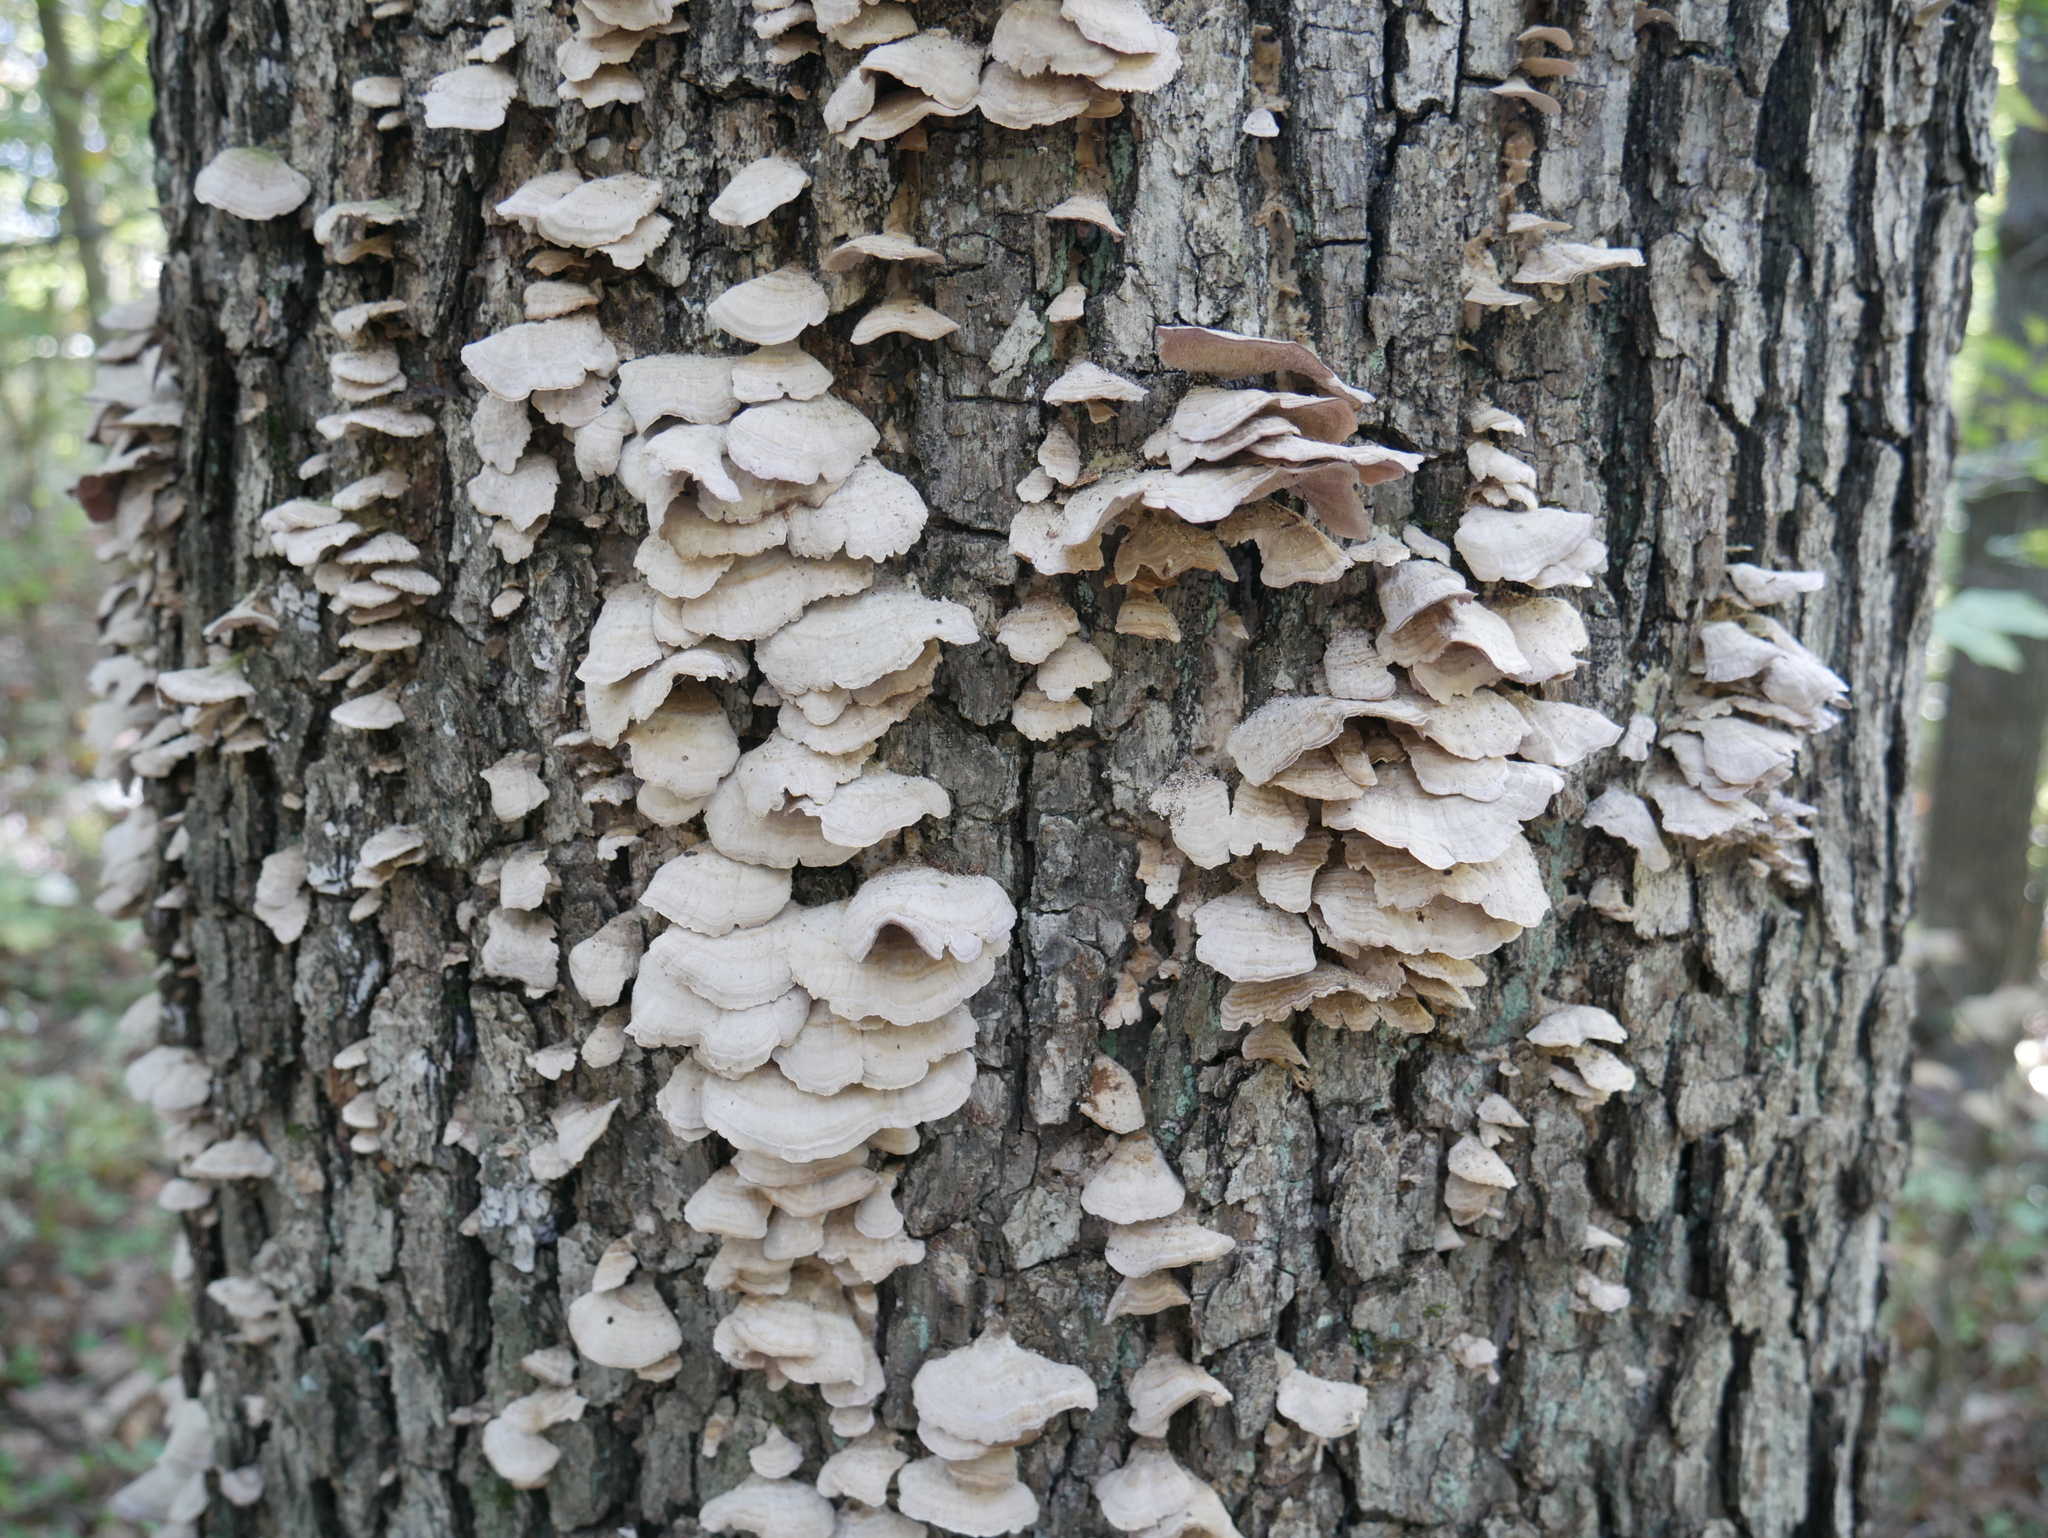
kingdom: Fungi
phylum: Basidiomycota
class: Agaricomycetes
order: Hymenochaetales
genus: Trichaptum
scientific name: Trichaptum biforme
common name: Violet-toothed polypore
